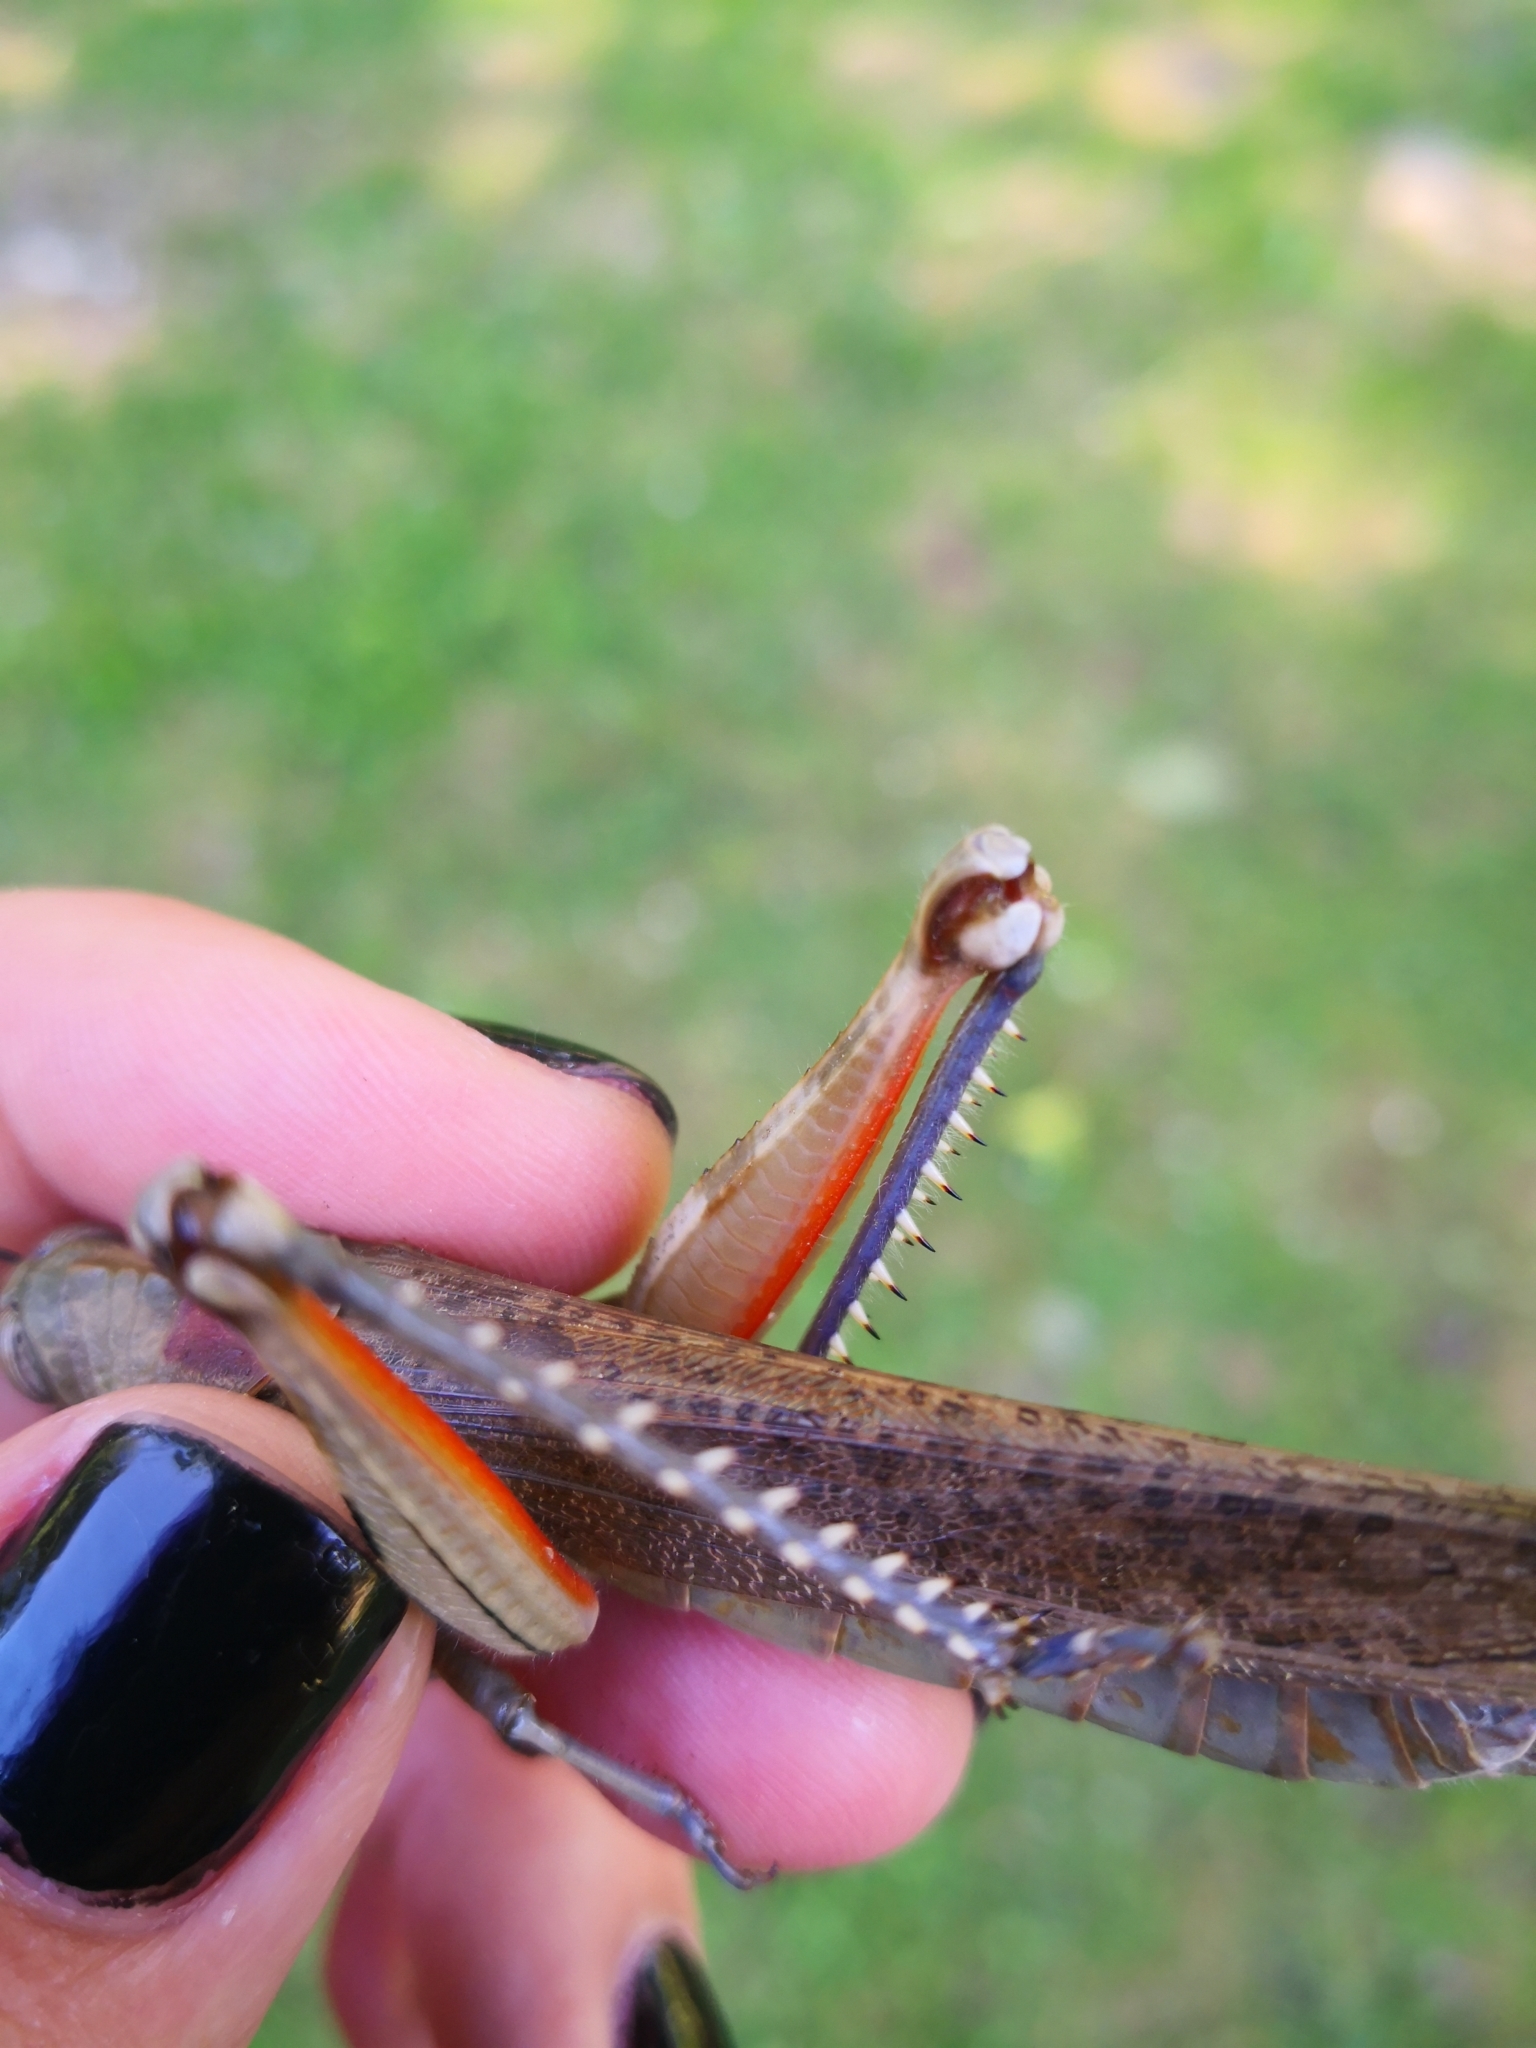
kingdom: Animalia
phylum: Arthropoda
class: Insecta
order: Orthoptera
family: Acrididae
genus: Anacridium
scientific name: Anacridium aegyptium
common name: Egyptian grasshopper
